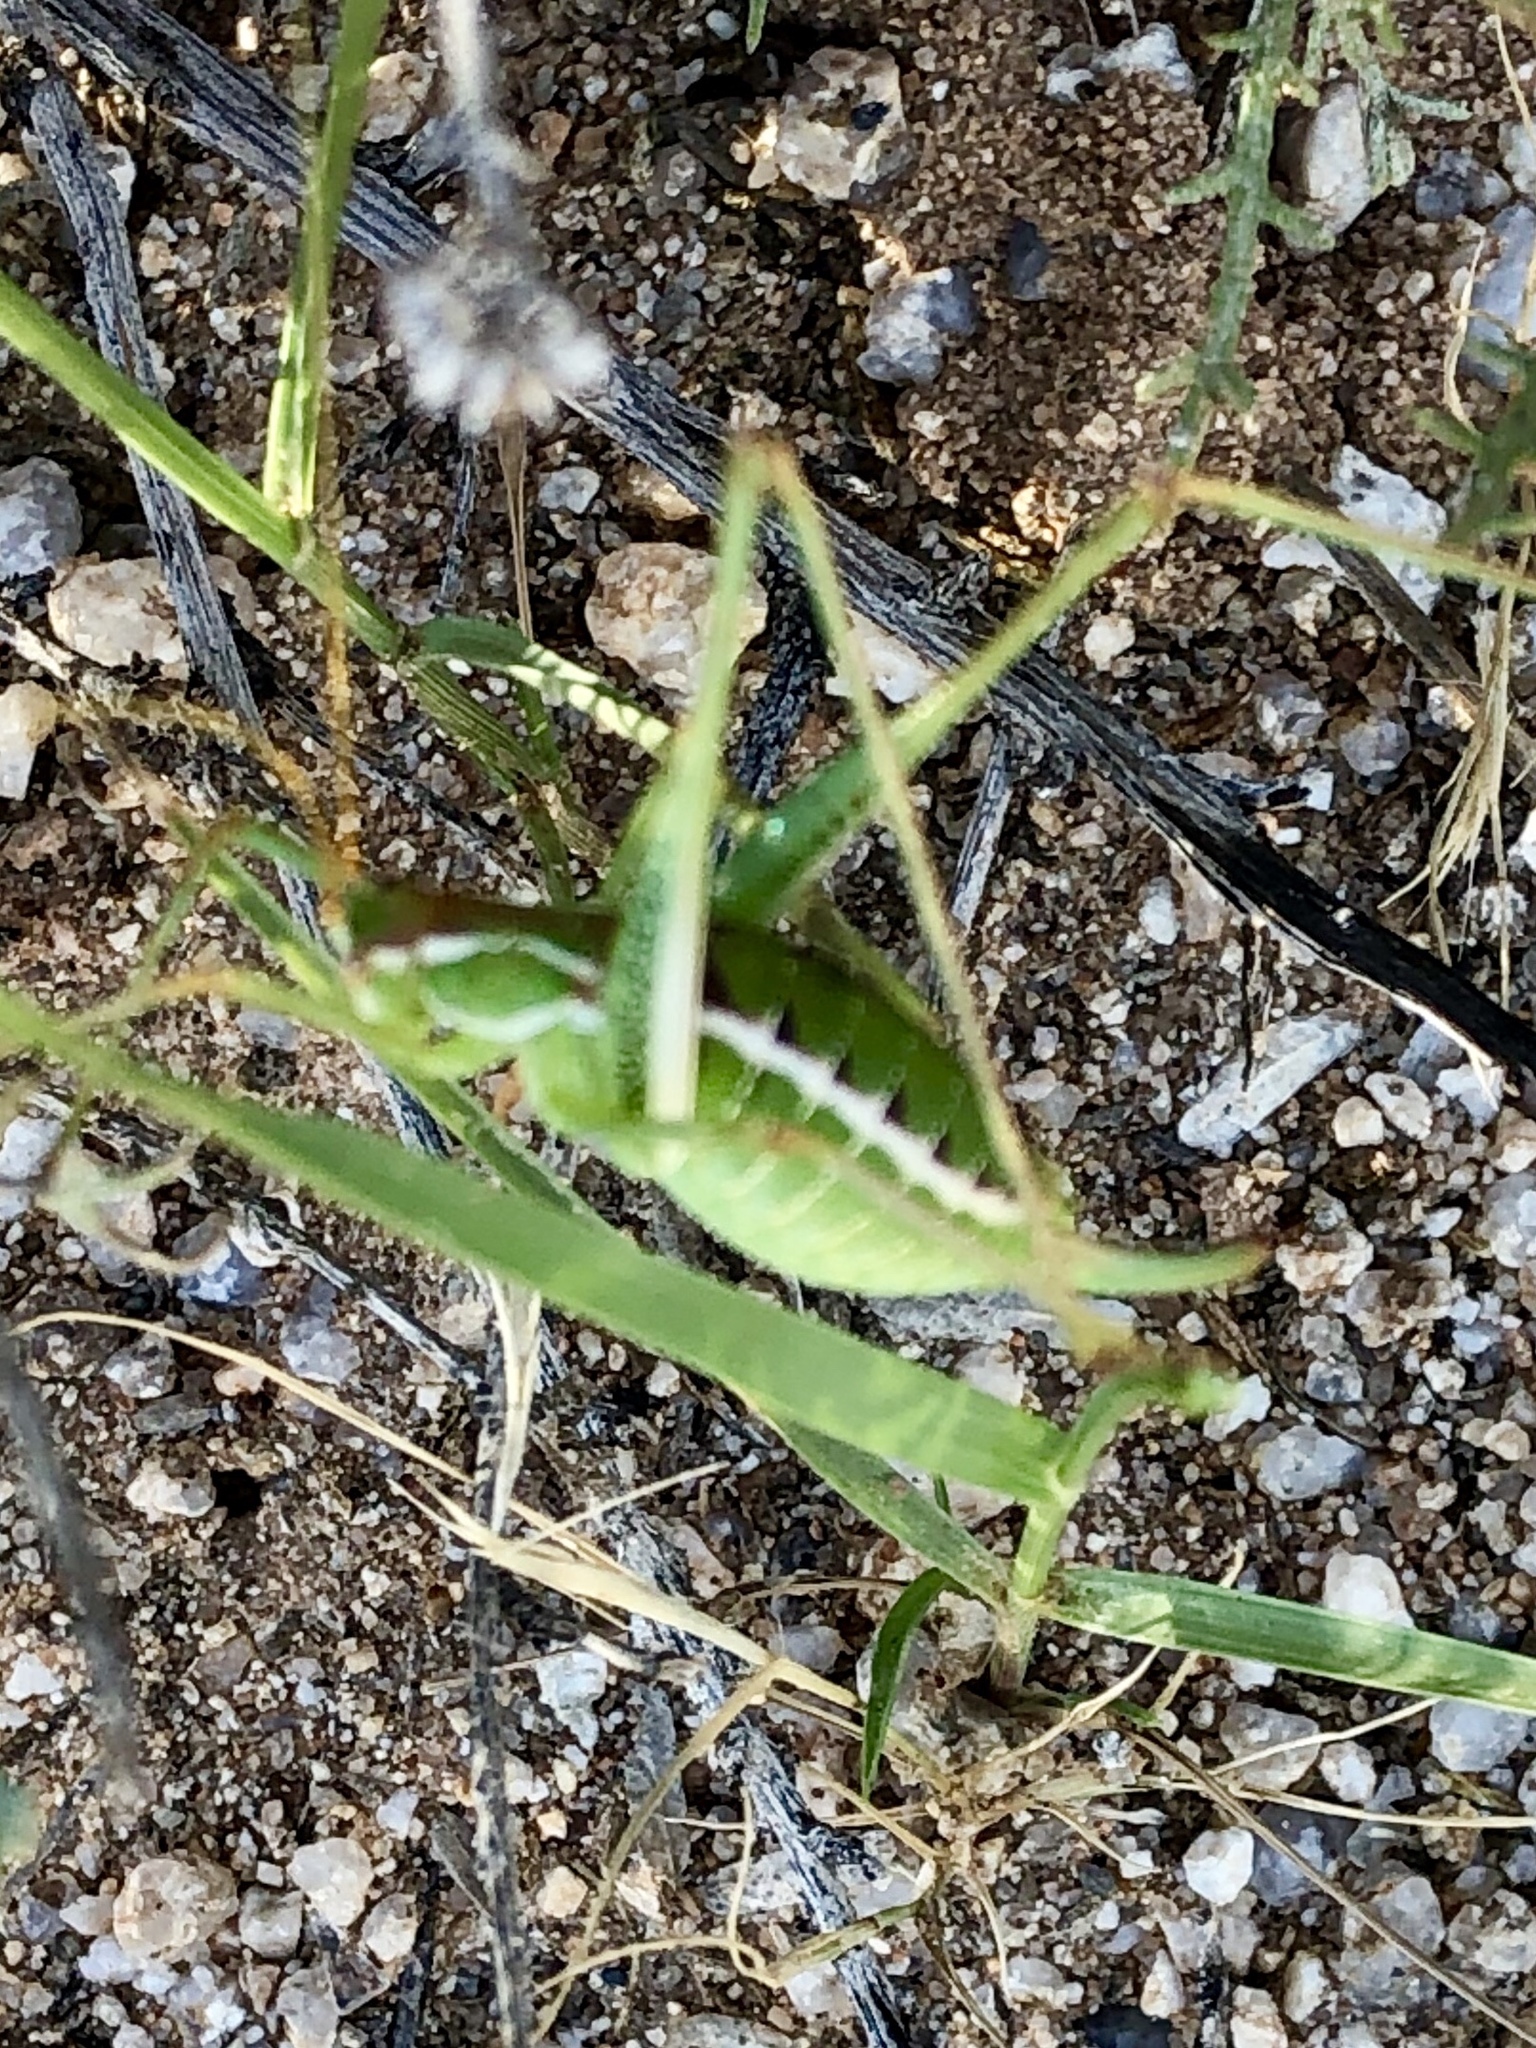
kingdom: Animalia
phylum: Arthropoda
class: Insecta
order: Orthoptera
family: Tettigoniidae
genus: Obolopteryx
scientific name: Obolopteryx brevihastata
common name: Common short-winged katydid
